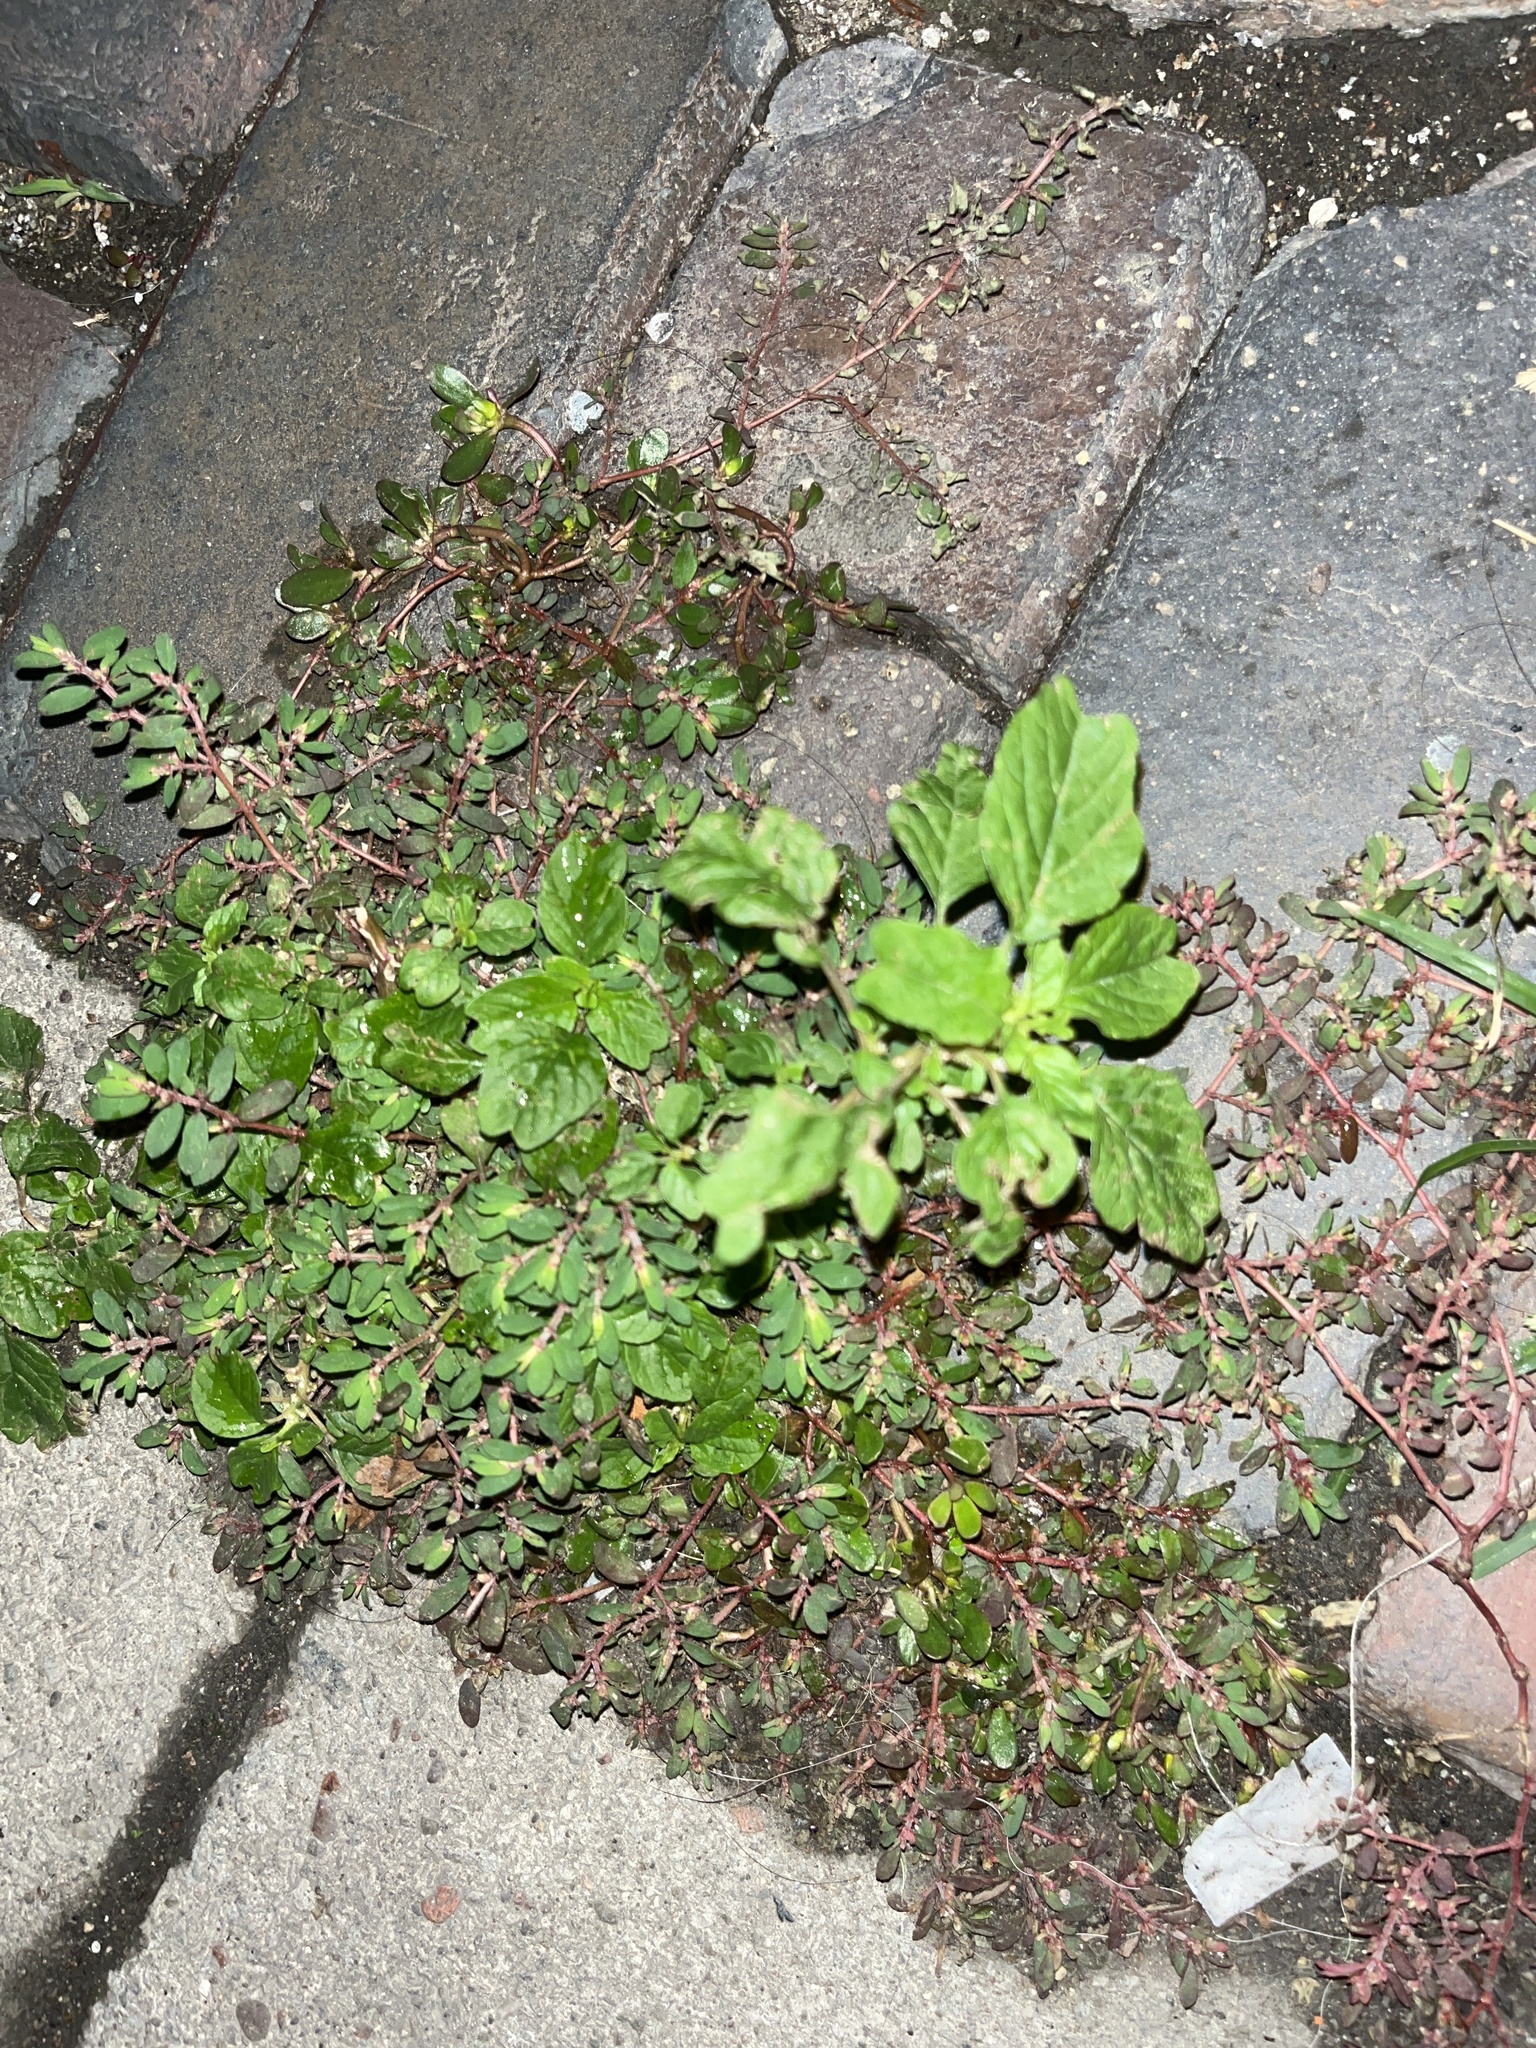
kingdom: Plantae
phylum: Tracheophyta
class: Magnoliopsida
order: Caryophyllales
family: Amaranthaceae
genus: Amaranthus
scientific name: Amaranthus blitum
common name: Purple amaranth
